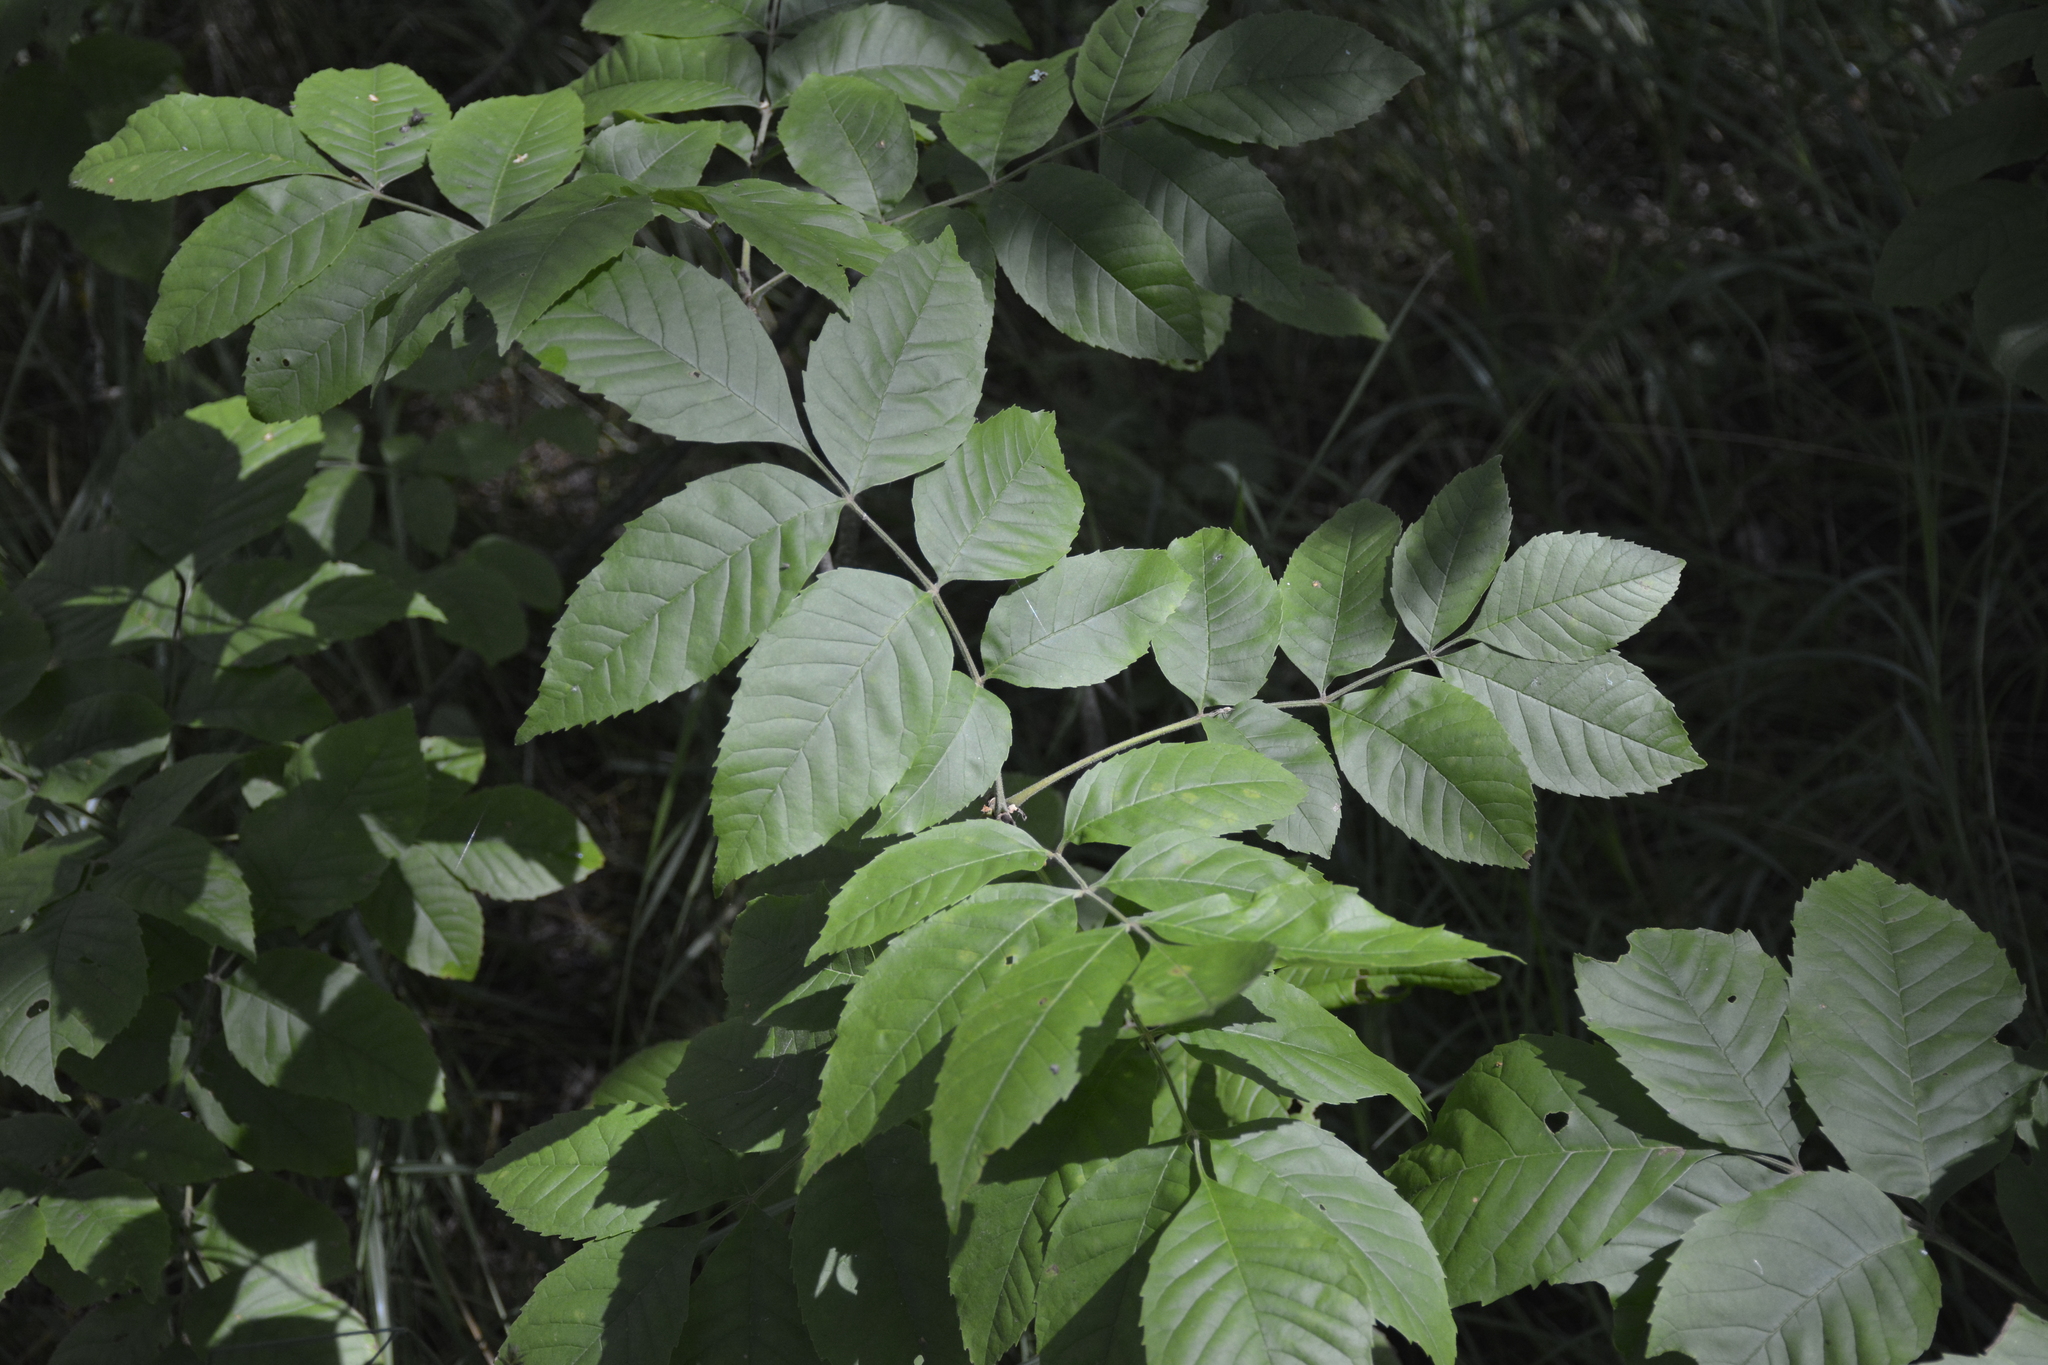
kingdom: Plantae
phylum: Tracheophyta
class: Magnoliopsida
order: Lamiales
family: Oleaceae
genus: Fraxinus
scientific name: Fraxinus pennsylvanica
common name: Green ash
